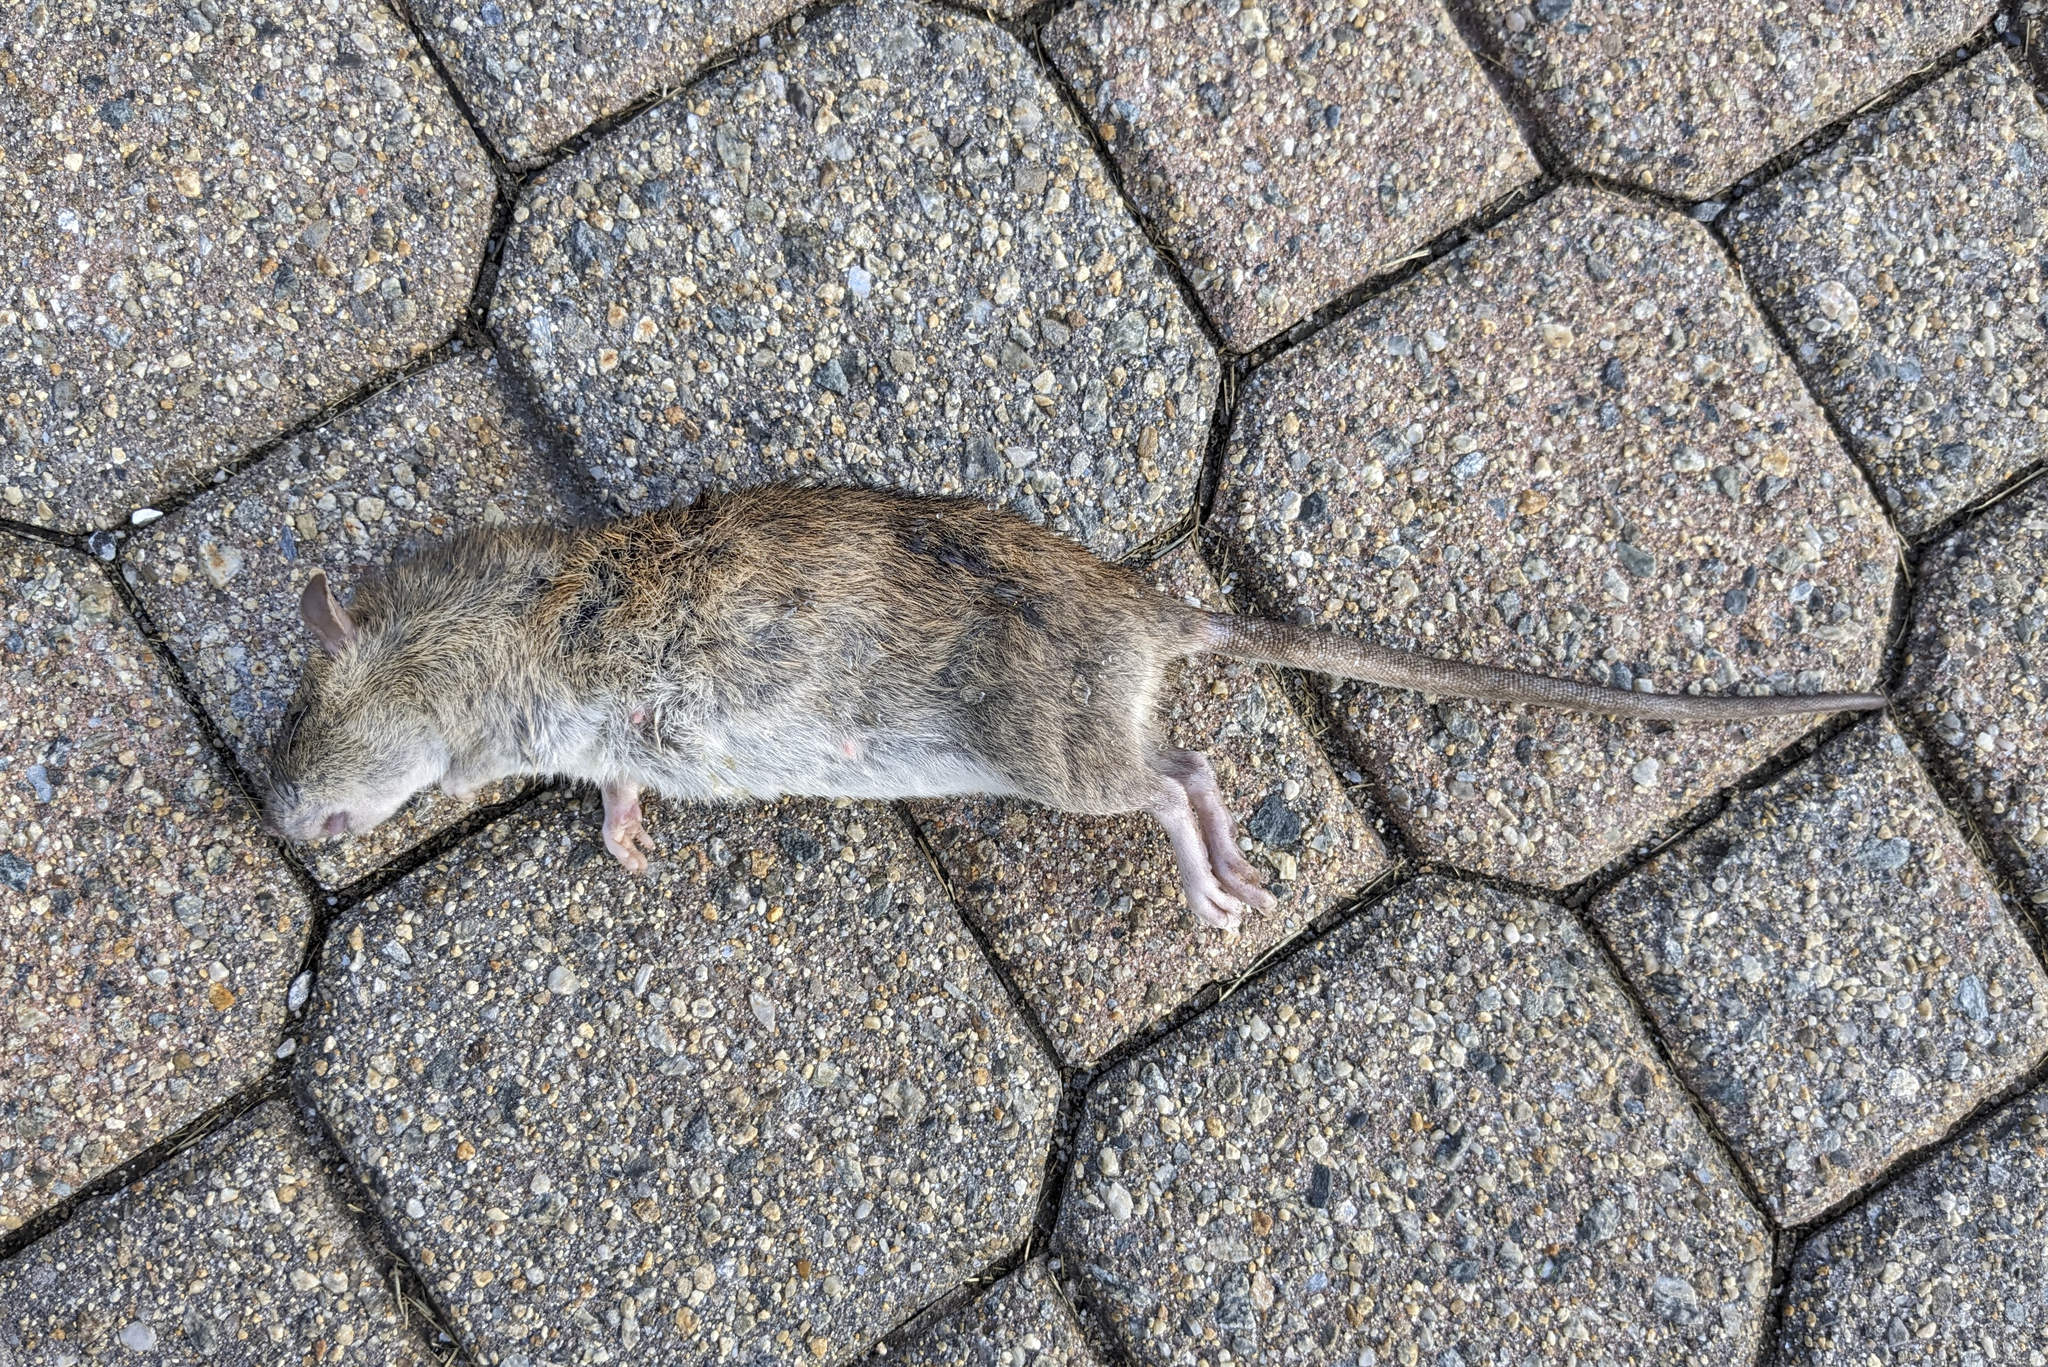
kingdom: Animalia
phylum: Chordata
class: Mammalia
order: Rodentia
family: Muridae
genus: Rattus
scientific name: Rattus norvegicus
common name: Brown rat
